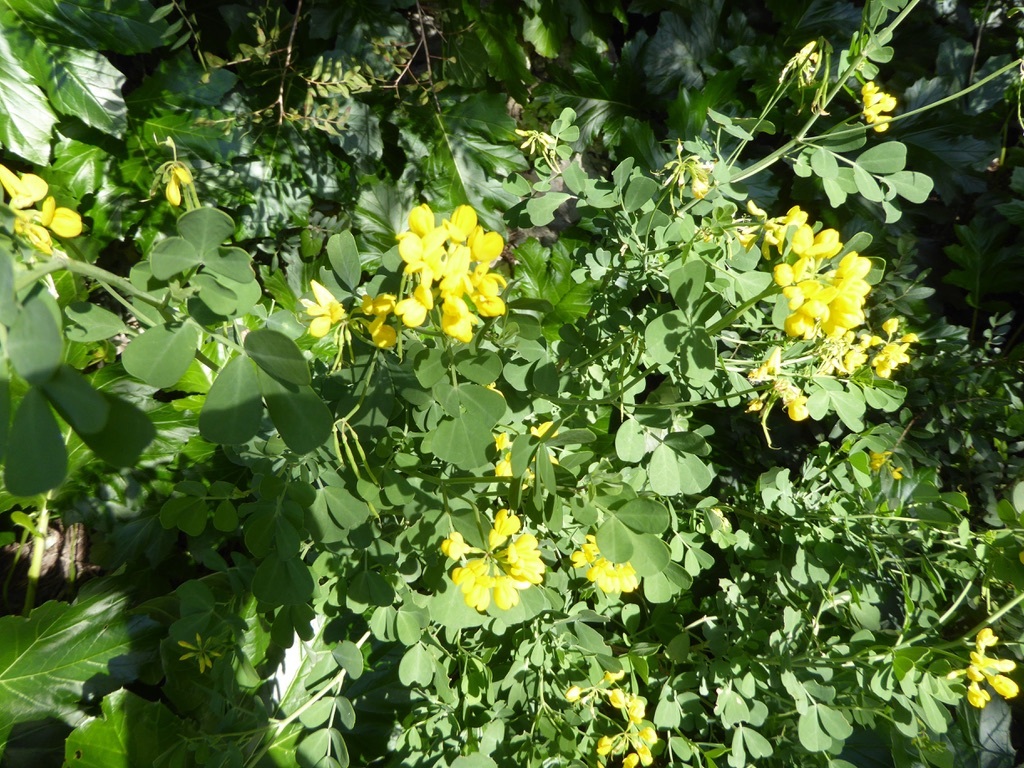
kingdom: Plantae
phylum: Tracheophyta
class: Magnoliopsida
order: Fabales
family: Fabaceae
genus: Coronilla
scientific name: Coronilla valentina
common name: Shrubby scorpion-vetch
